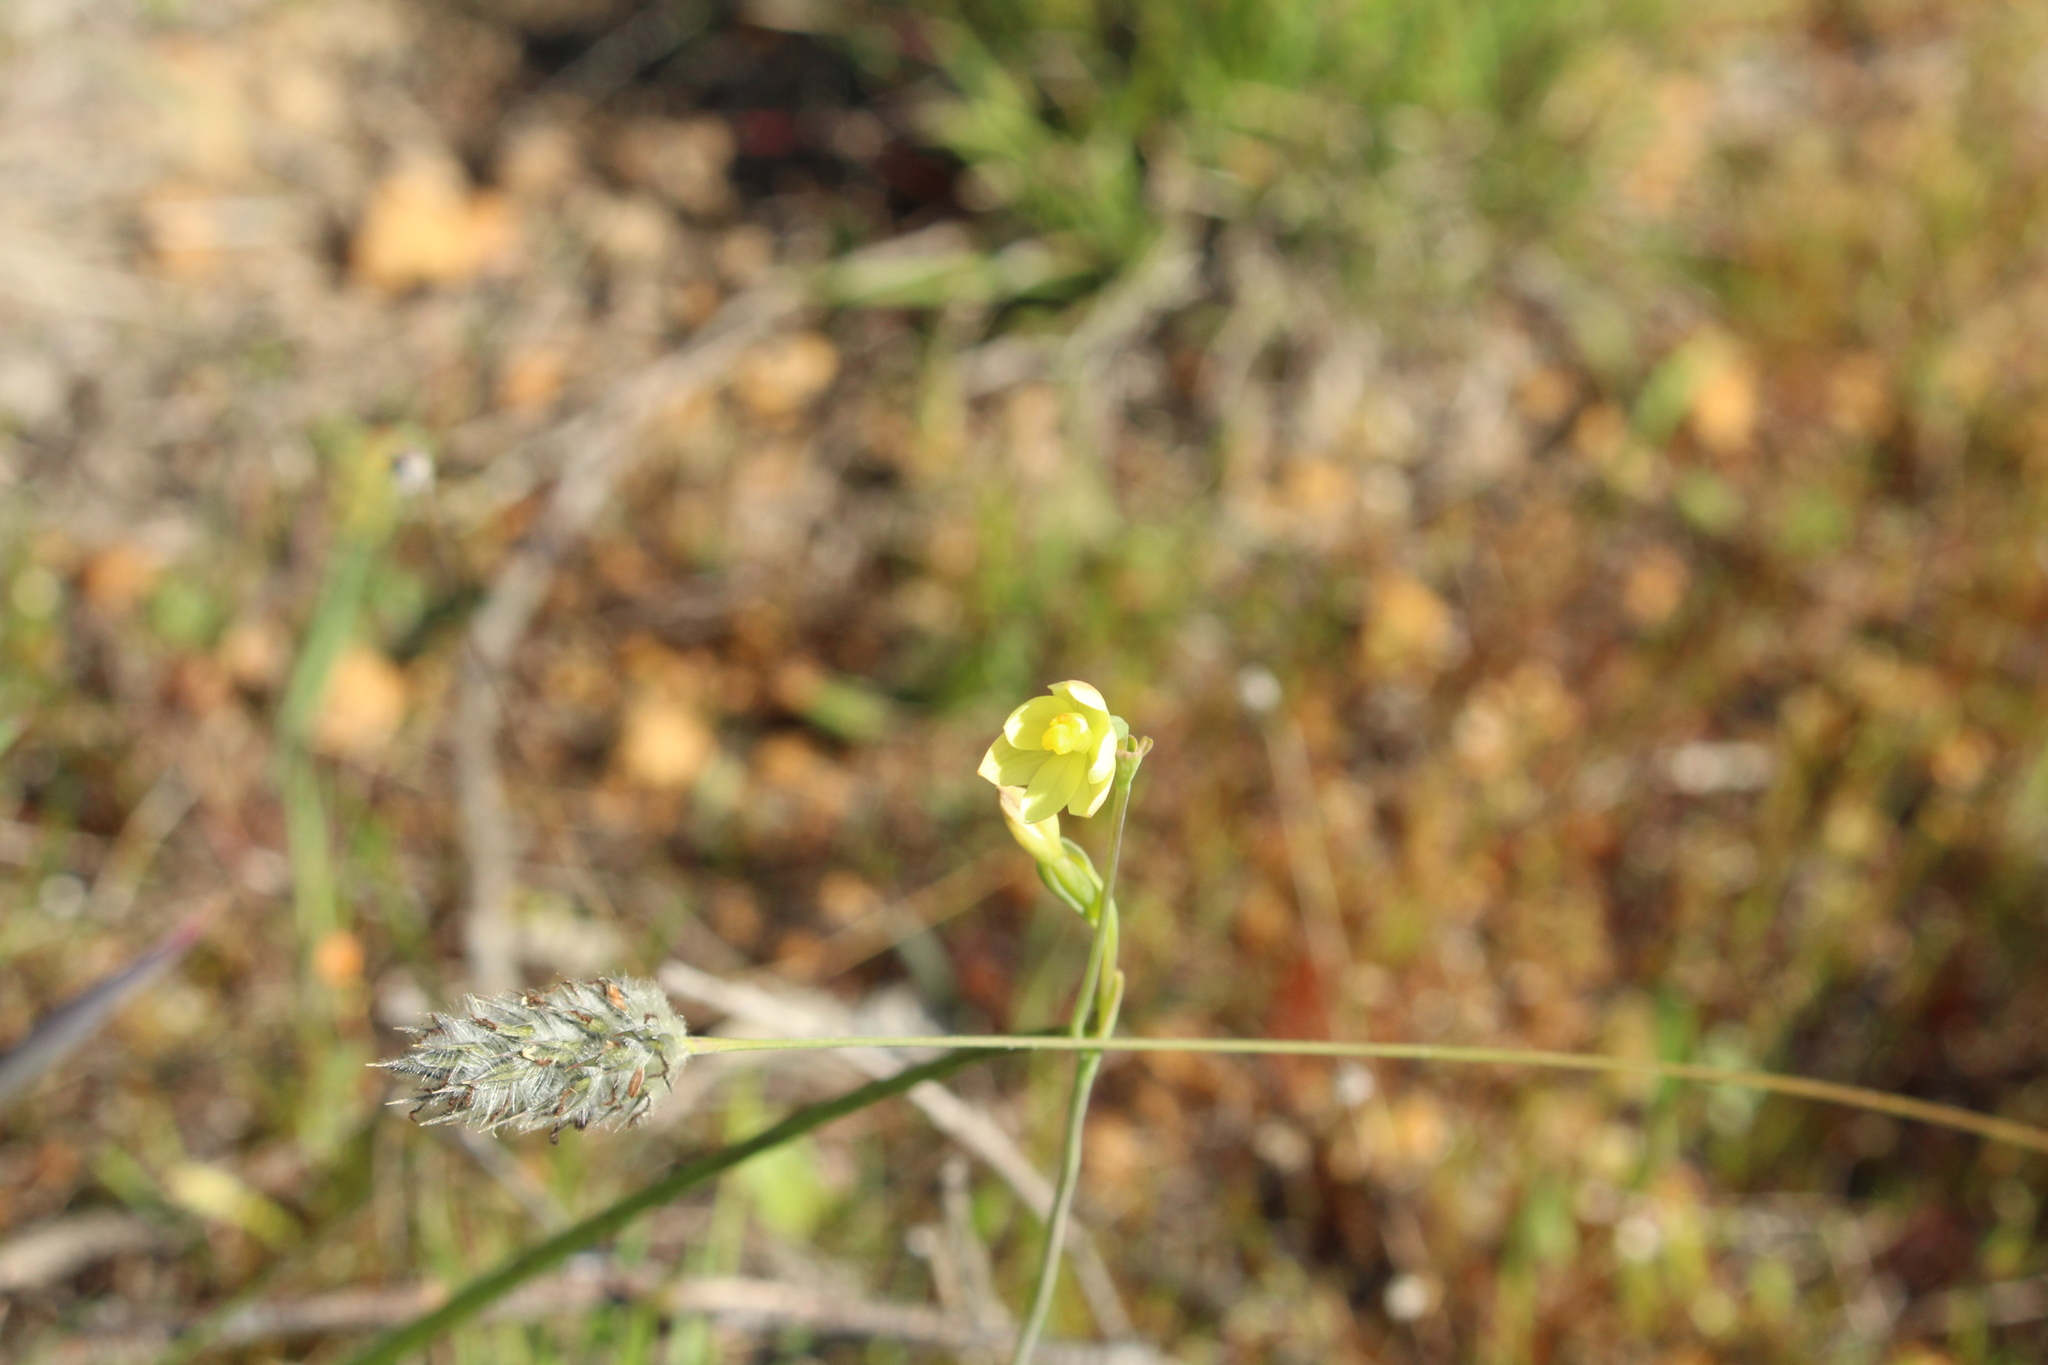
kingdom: Plantae
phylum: Tracheophyta
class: Liliopsida
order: Asparagales
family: Orchidaceae
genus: Thelymitra
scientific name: Thelymitra flexuosa
